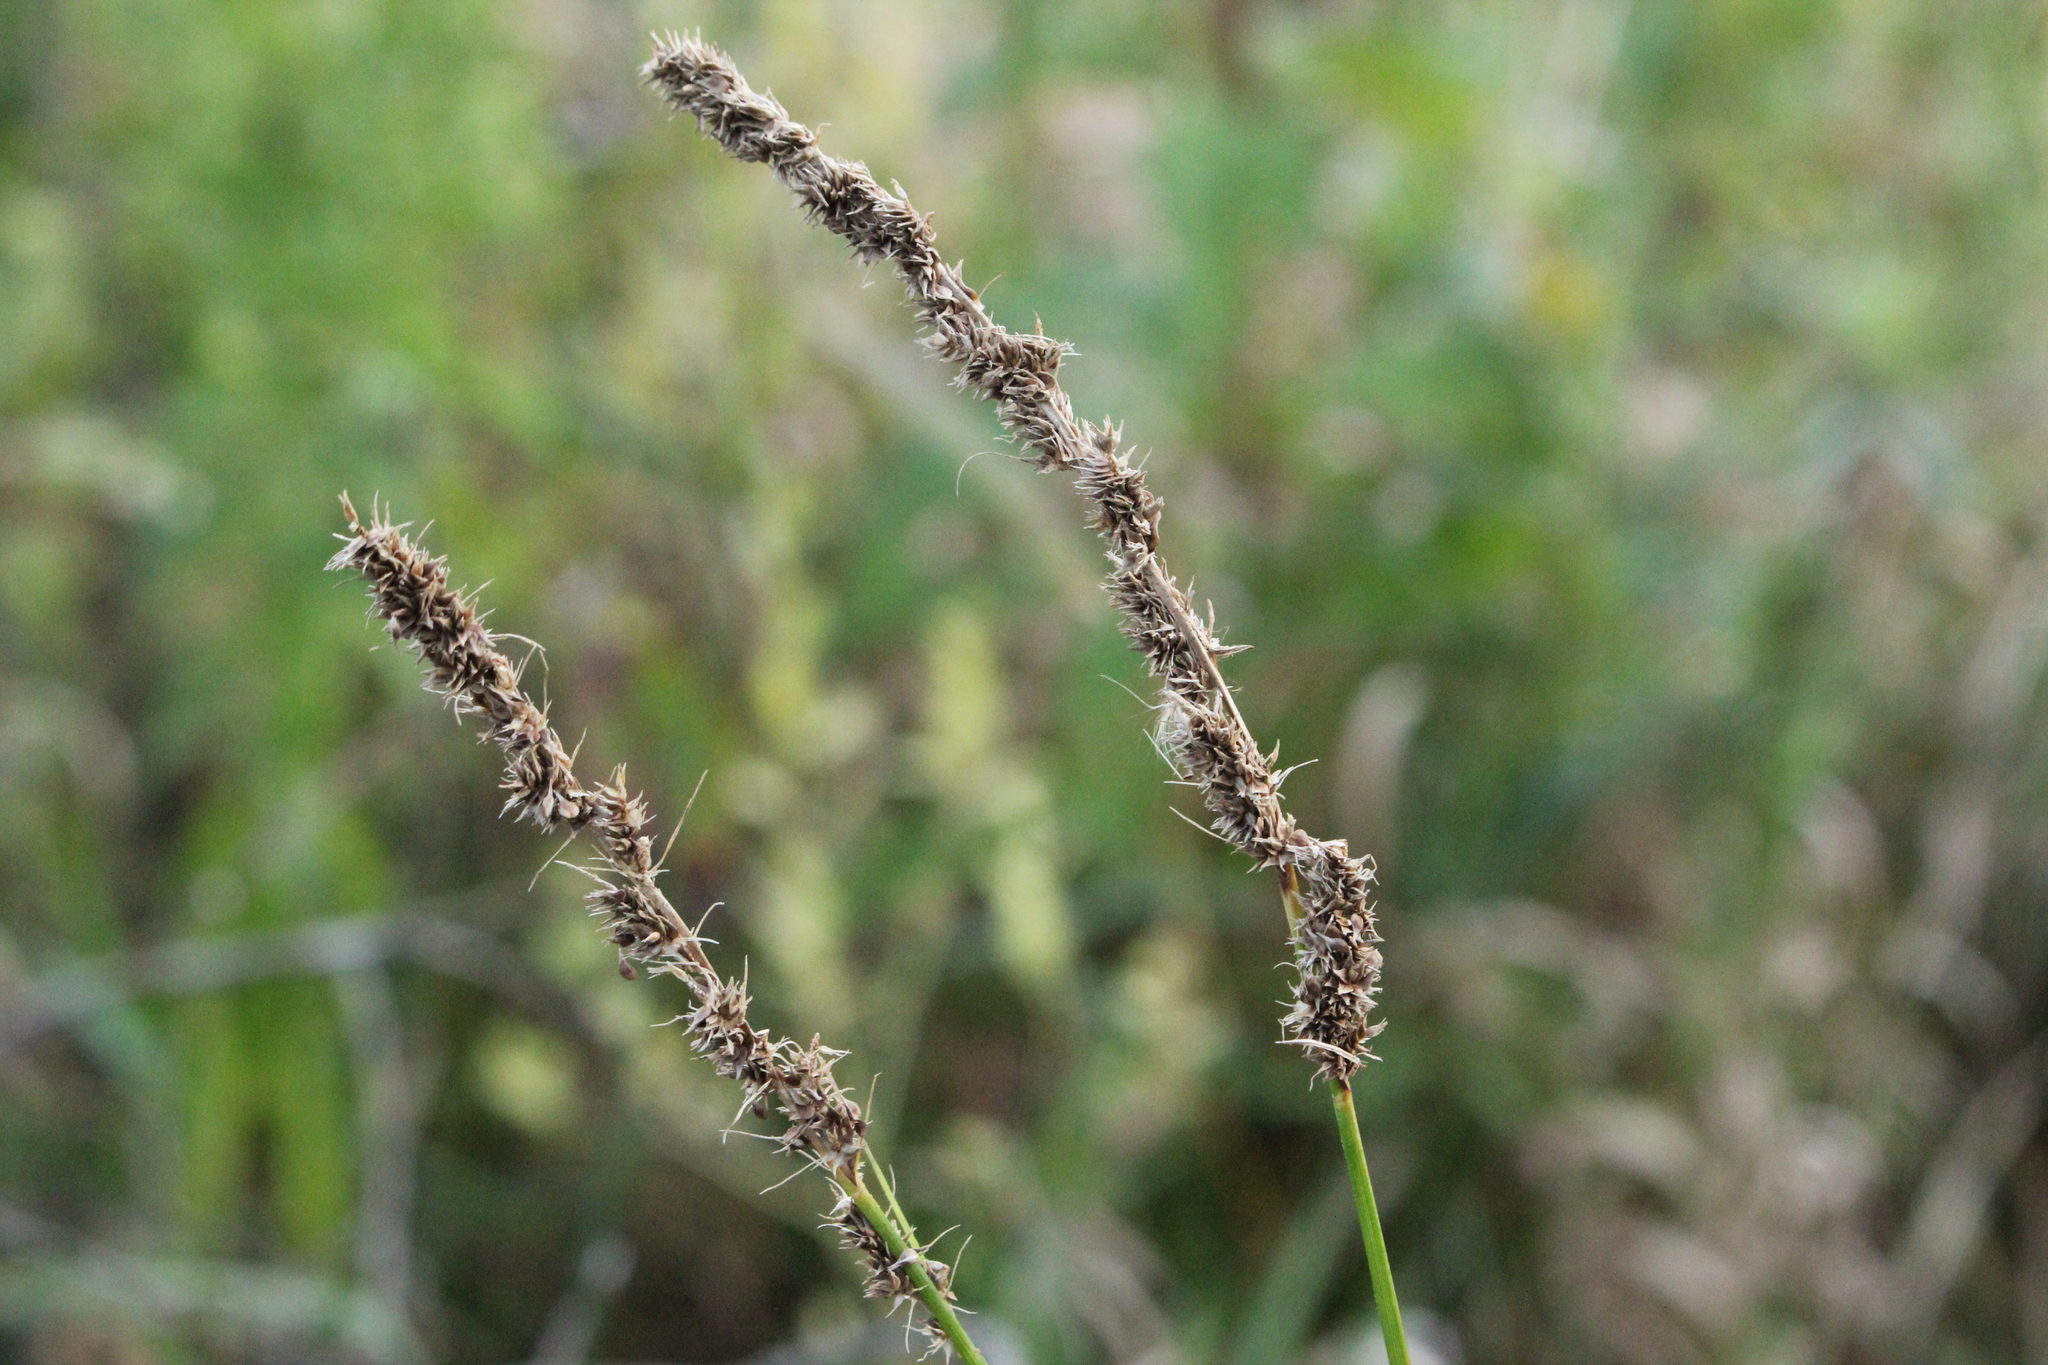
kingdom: Plantae
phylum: Tracheophyta
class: Liliopsida
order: Poales
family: Cyperaceae
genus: Carex
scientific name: Carex vulpinoidea
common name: American fox-sedge
